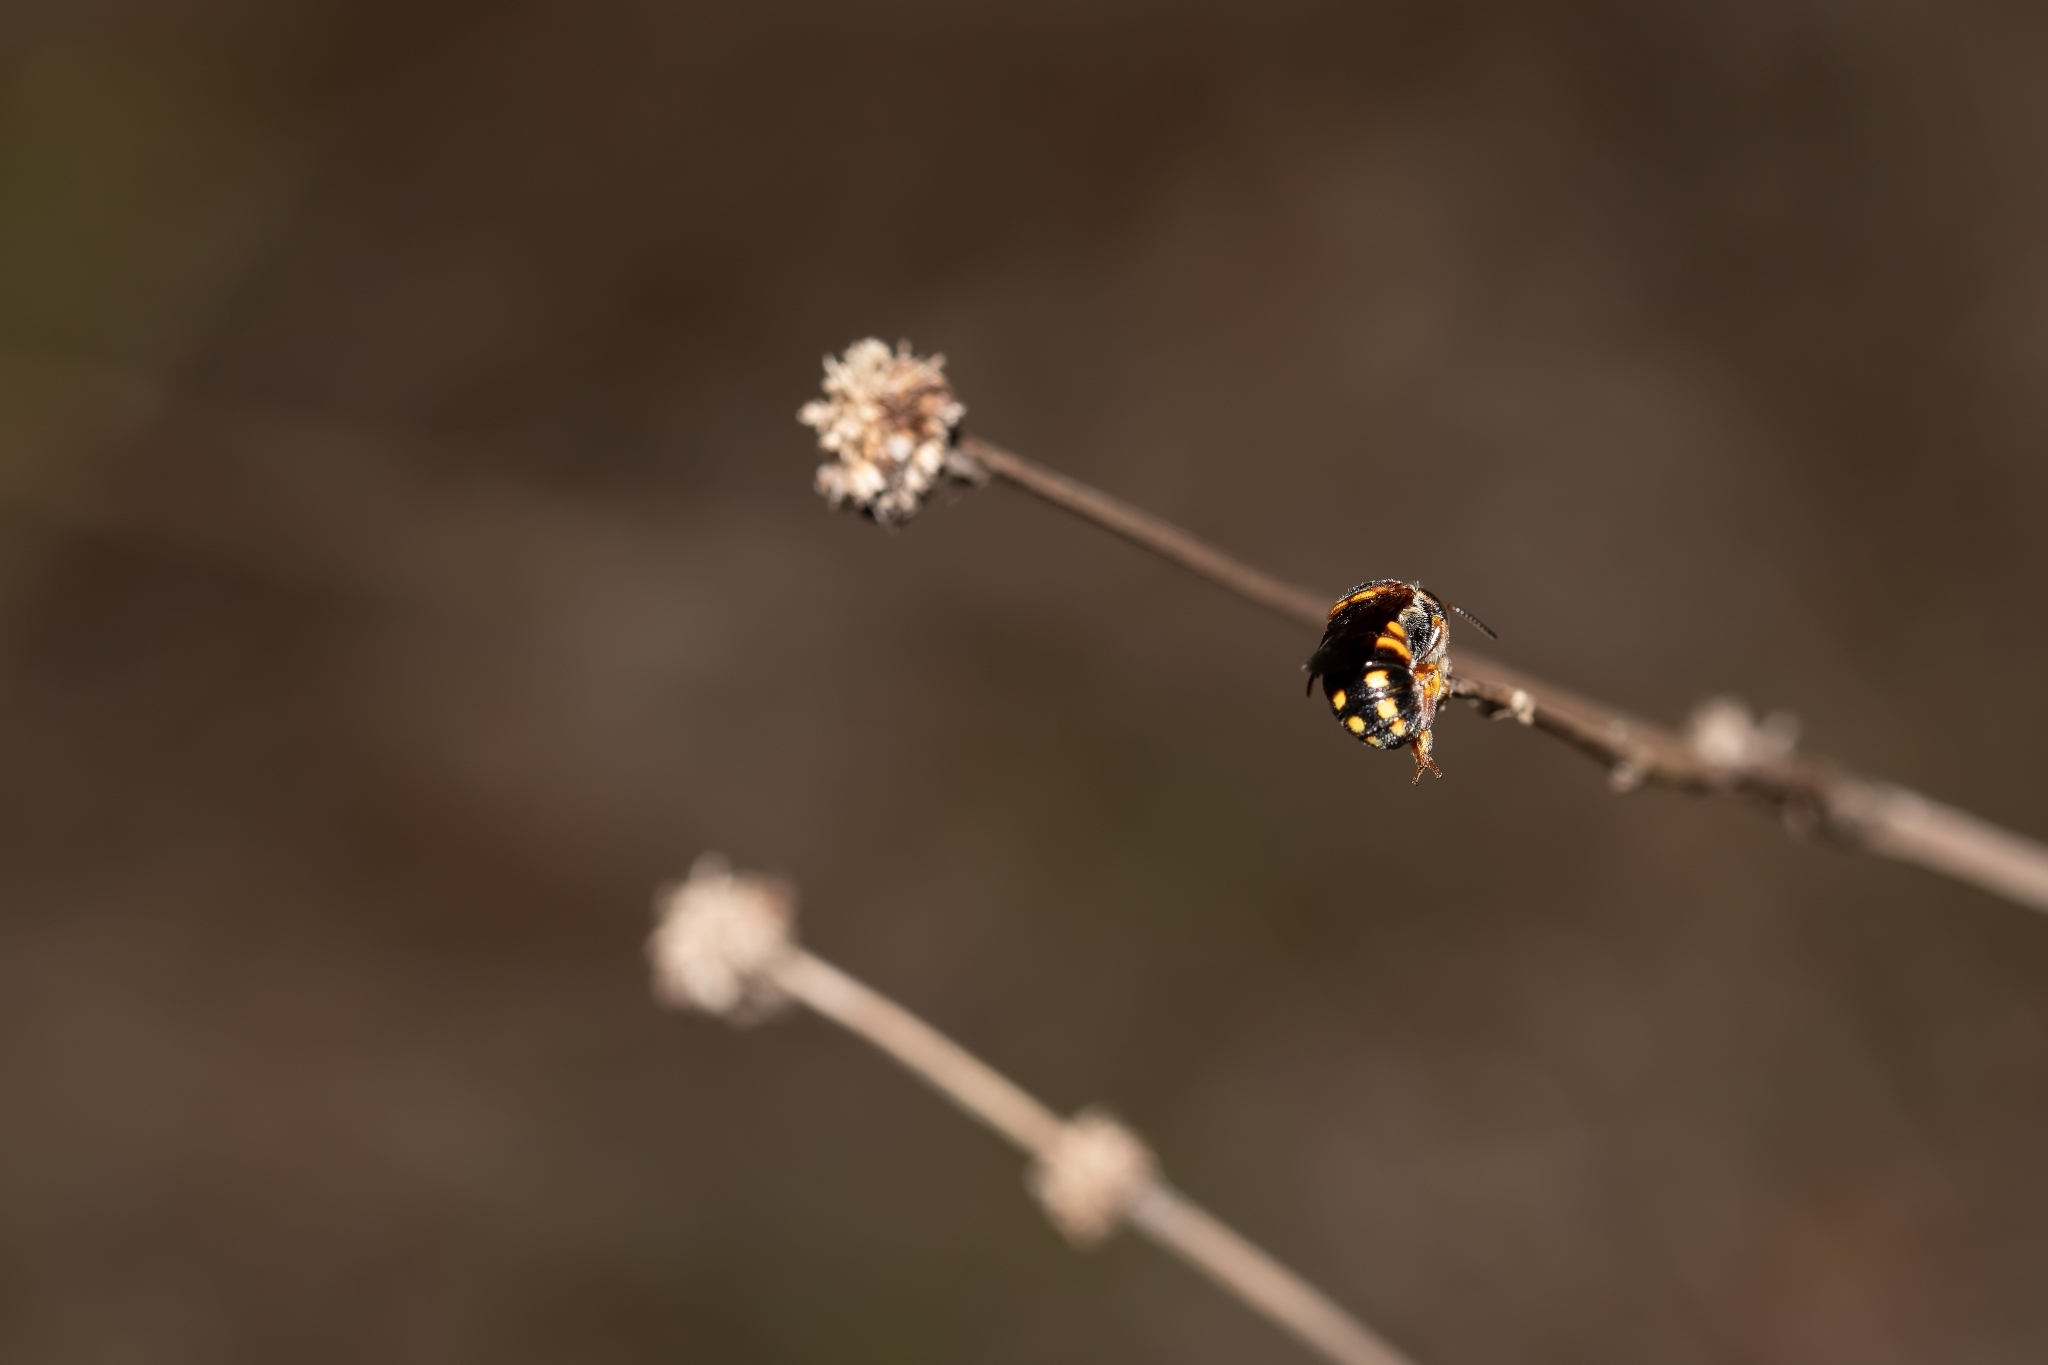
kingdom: Animalia
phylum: Arthropoda
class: Insecta
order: Hymenoptera
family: Megachilidae
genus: Anthidiellum
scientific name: Anthidiellum perplexum
